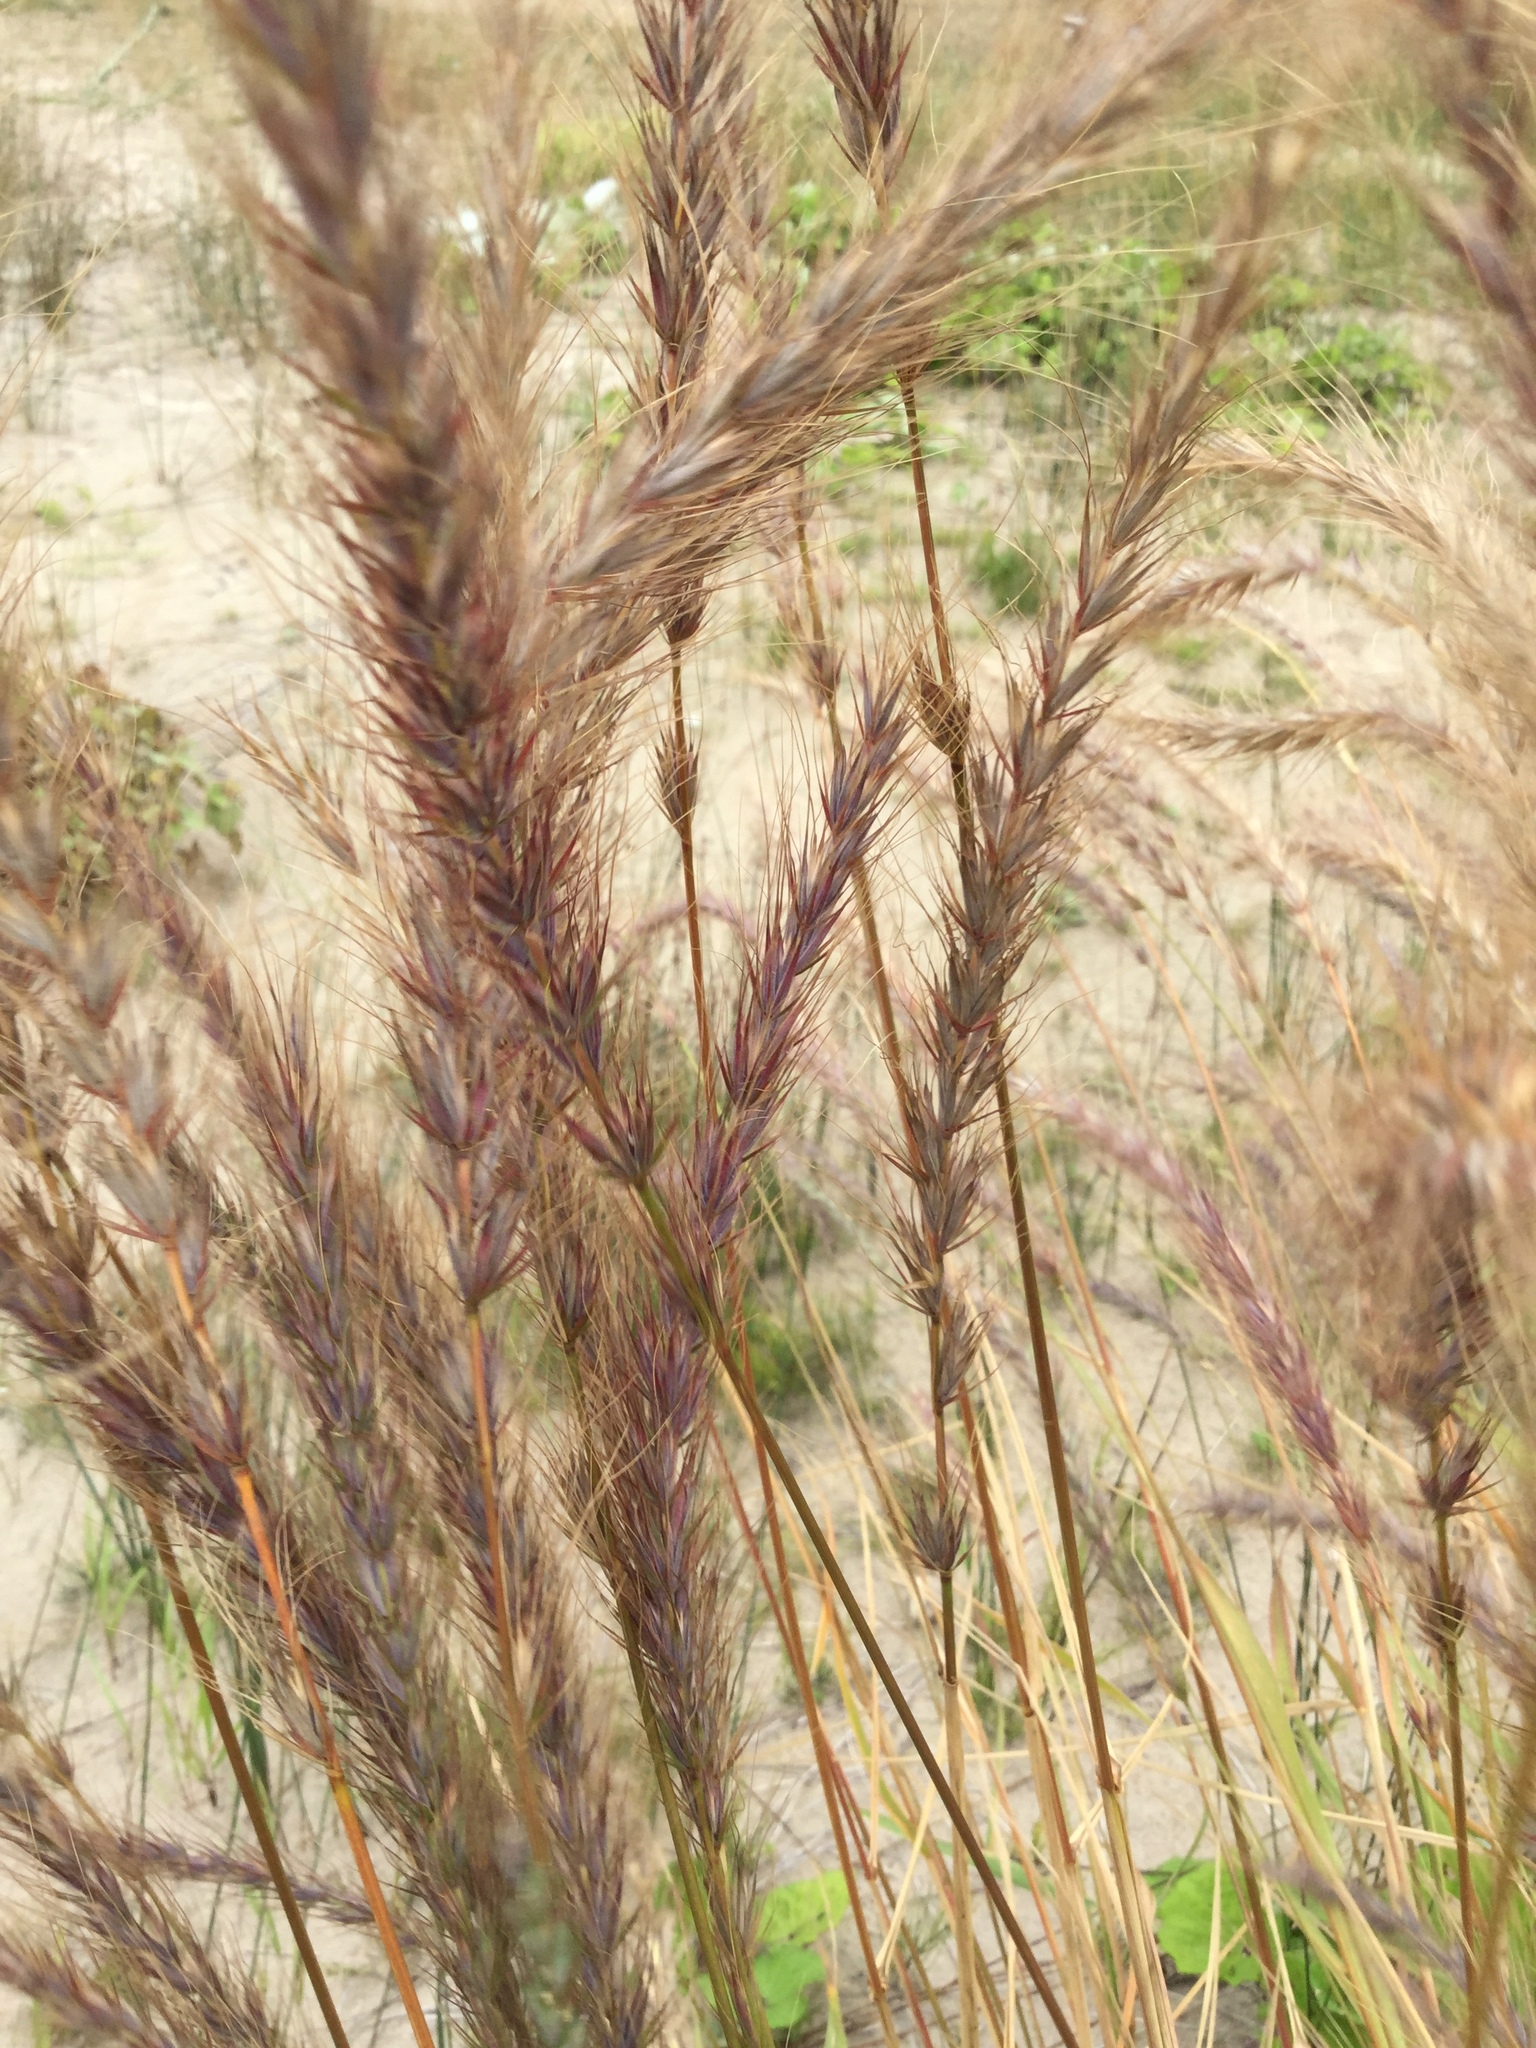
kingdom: Plantae
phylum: Tracheophyta
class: Liliopsida
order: Poales
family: Poaceae
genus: Elymus
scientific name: Elymus canadensis
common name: Canada wild rye
